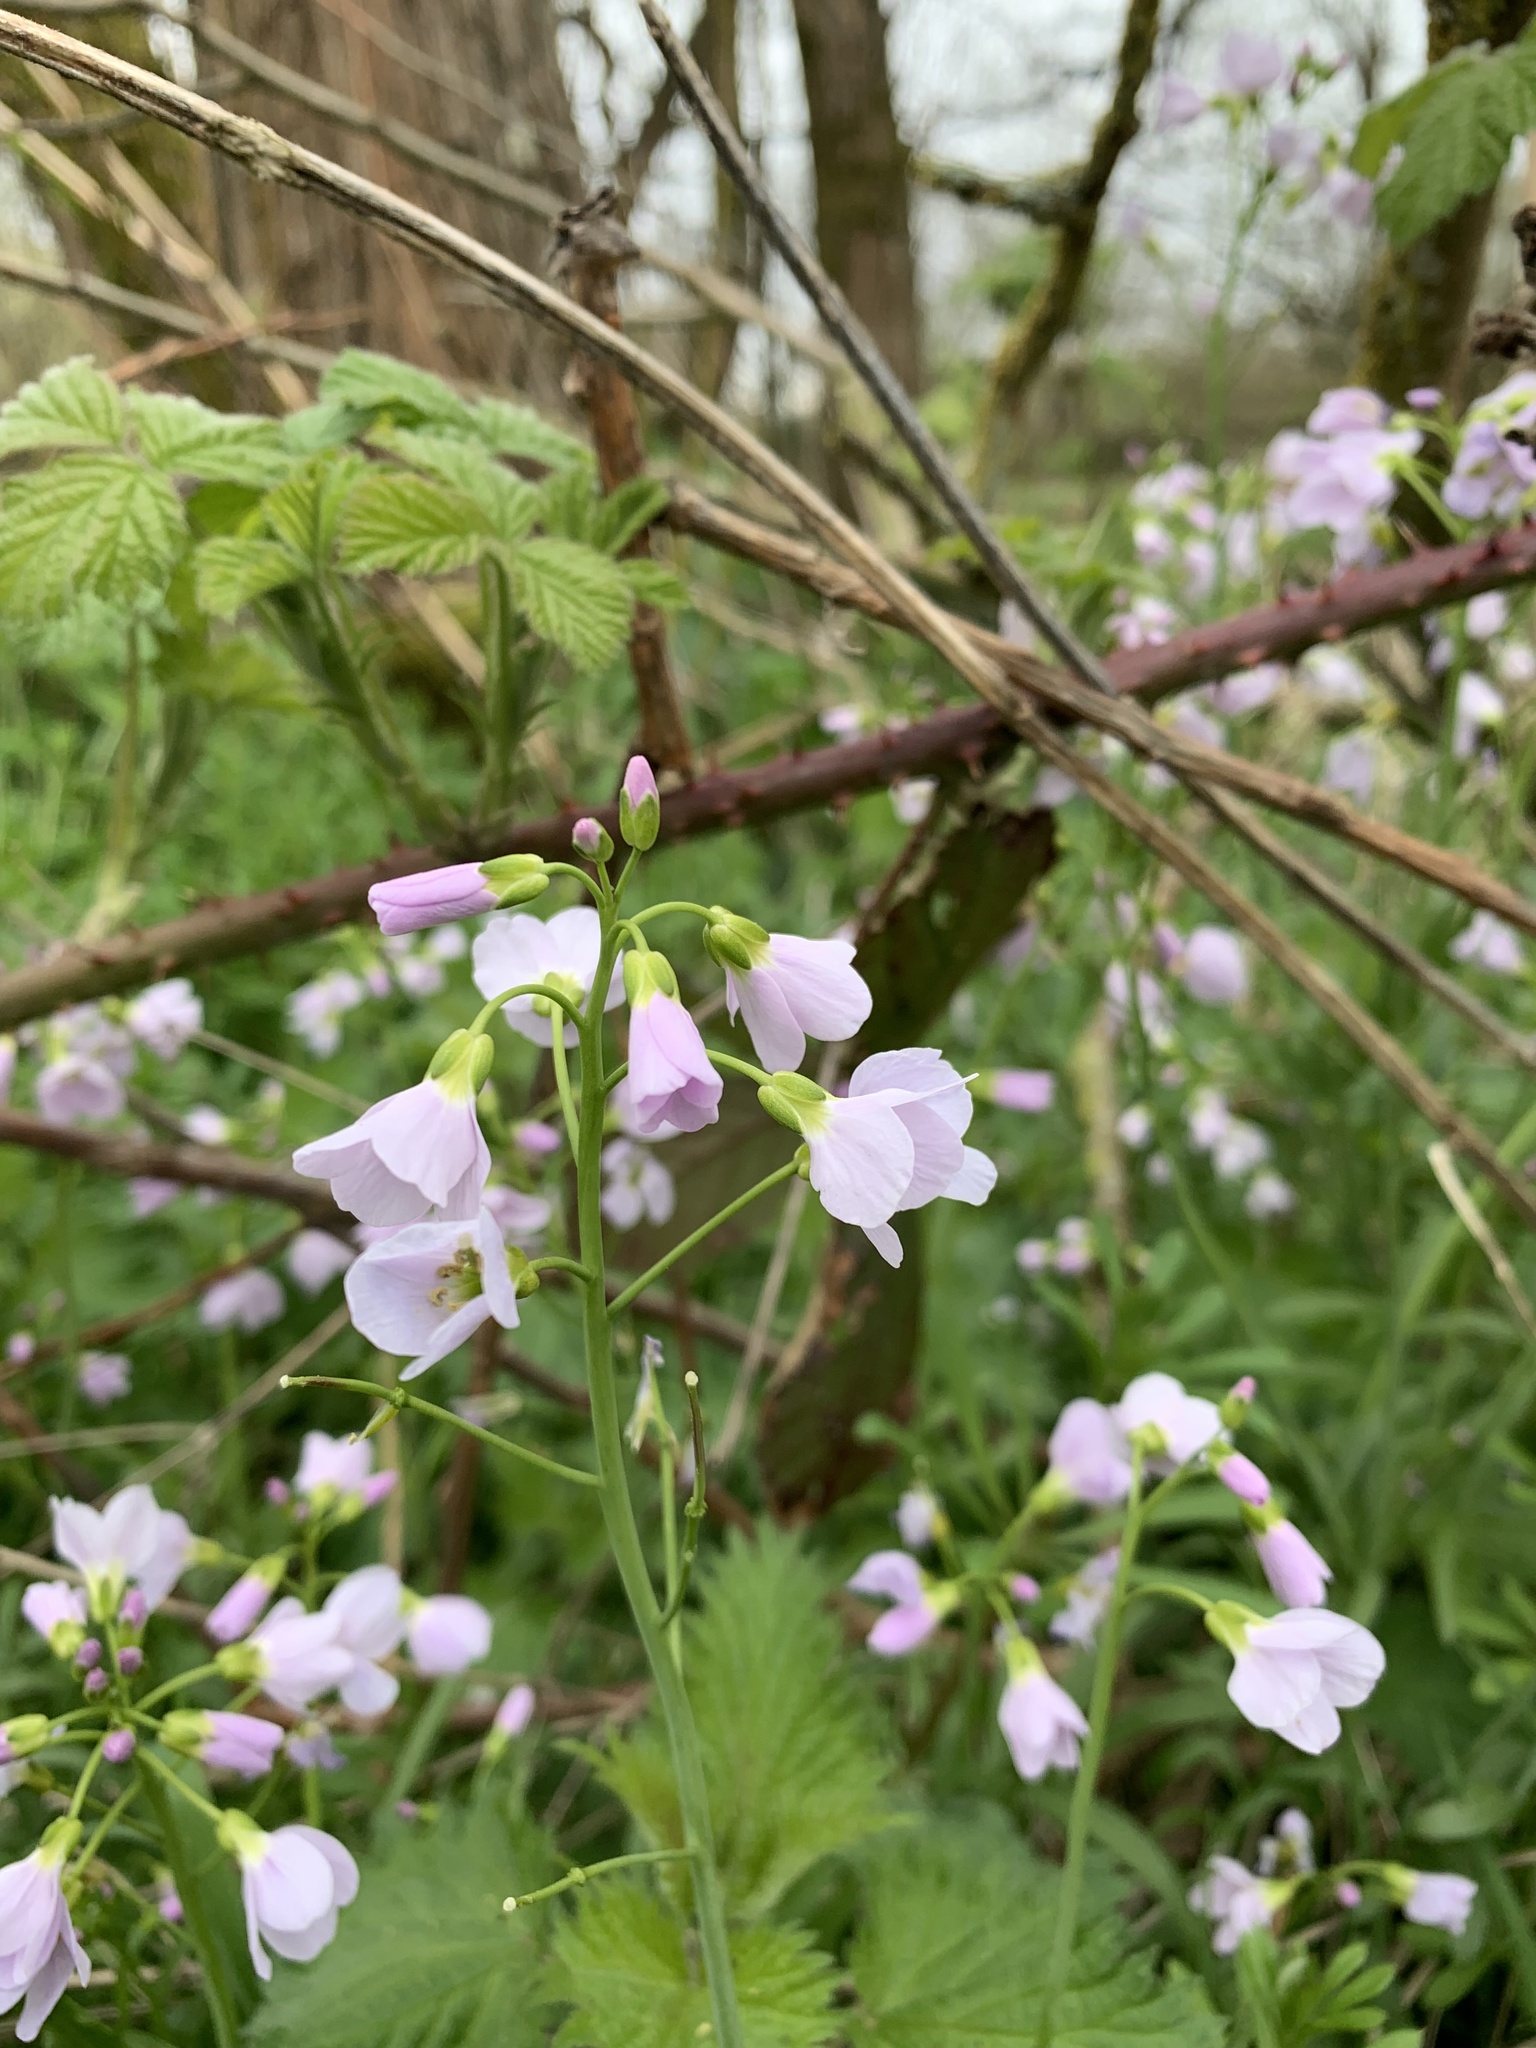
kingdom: Plantae
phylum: Tracheophyta
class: Magnoliopsida
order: Brassicales
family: Brassicaceae
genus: Cardamine
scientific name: Cardamine pratensis
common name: Cuckoo flower
